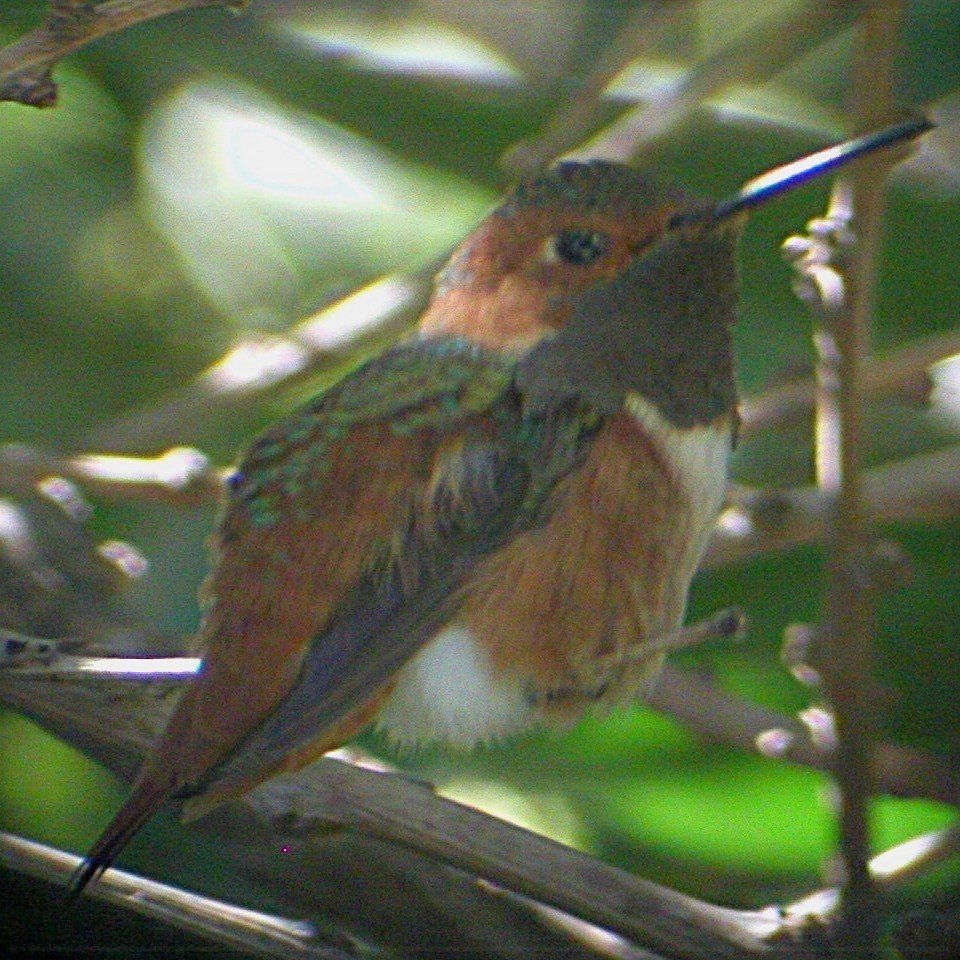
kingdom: Animalia
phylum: Chordata
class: Aves
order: Apodiformes
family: Trochilidae
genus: Selasphorus
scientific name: Selasphorus sasin
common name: Allen's hummingbird
